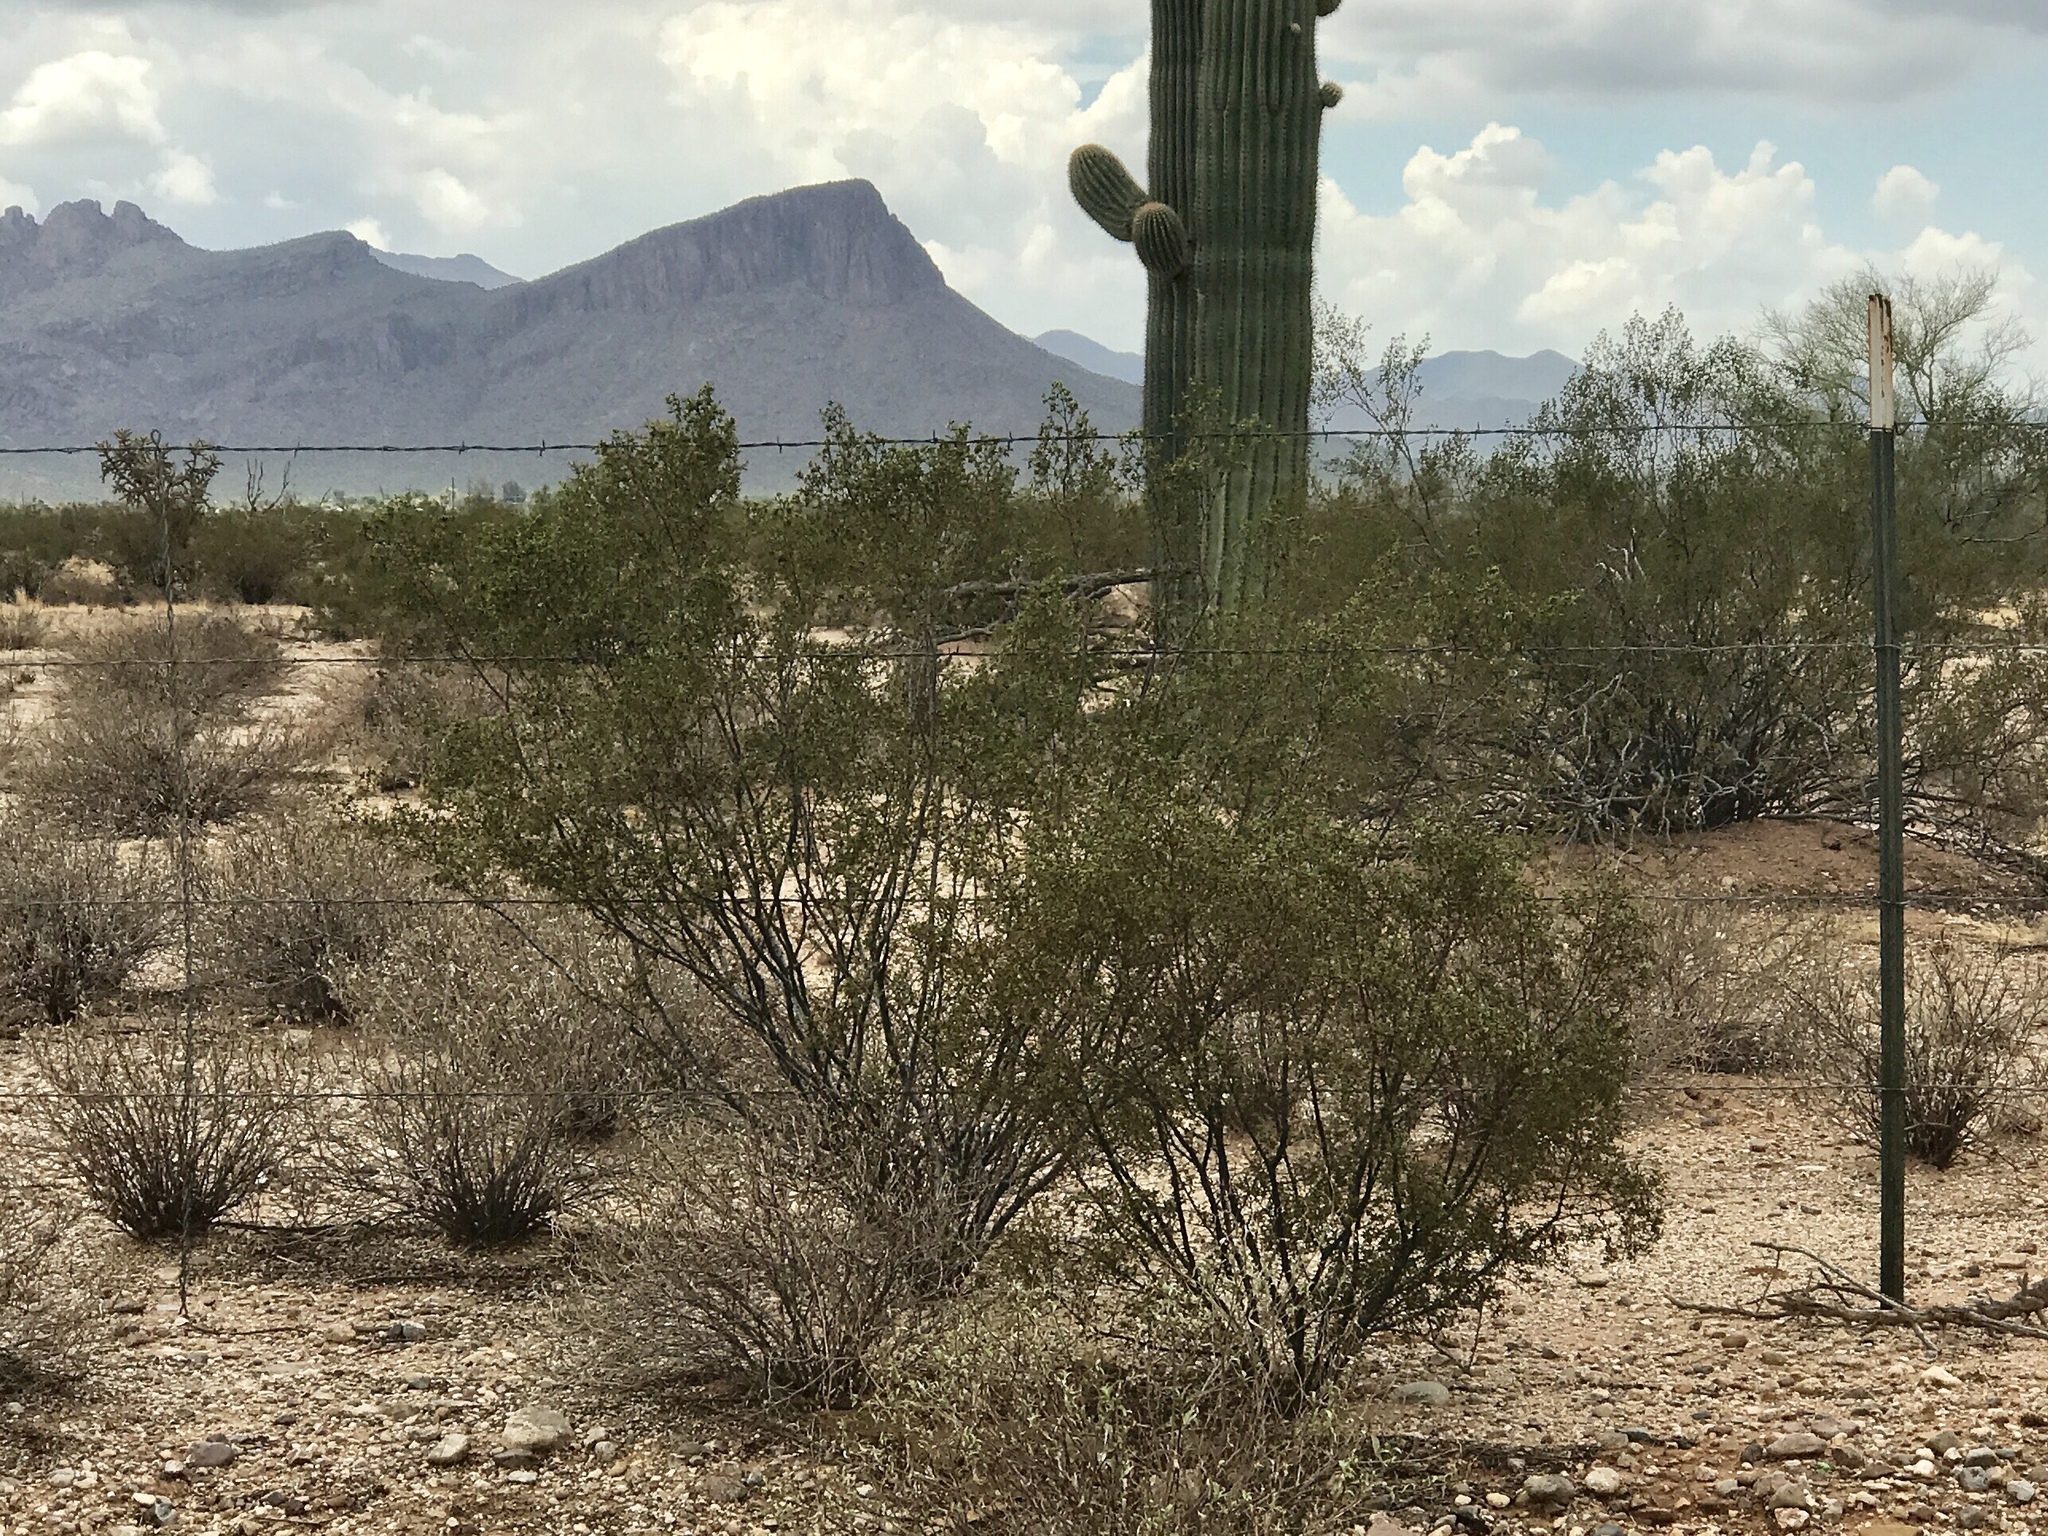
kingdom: Plantae
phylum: Tracheophyta
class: Magnoliopsida
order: Zygophyllales
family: Zygophyllaceae
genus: Larrea
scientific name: Larrea tridentata
